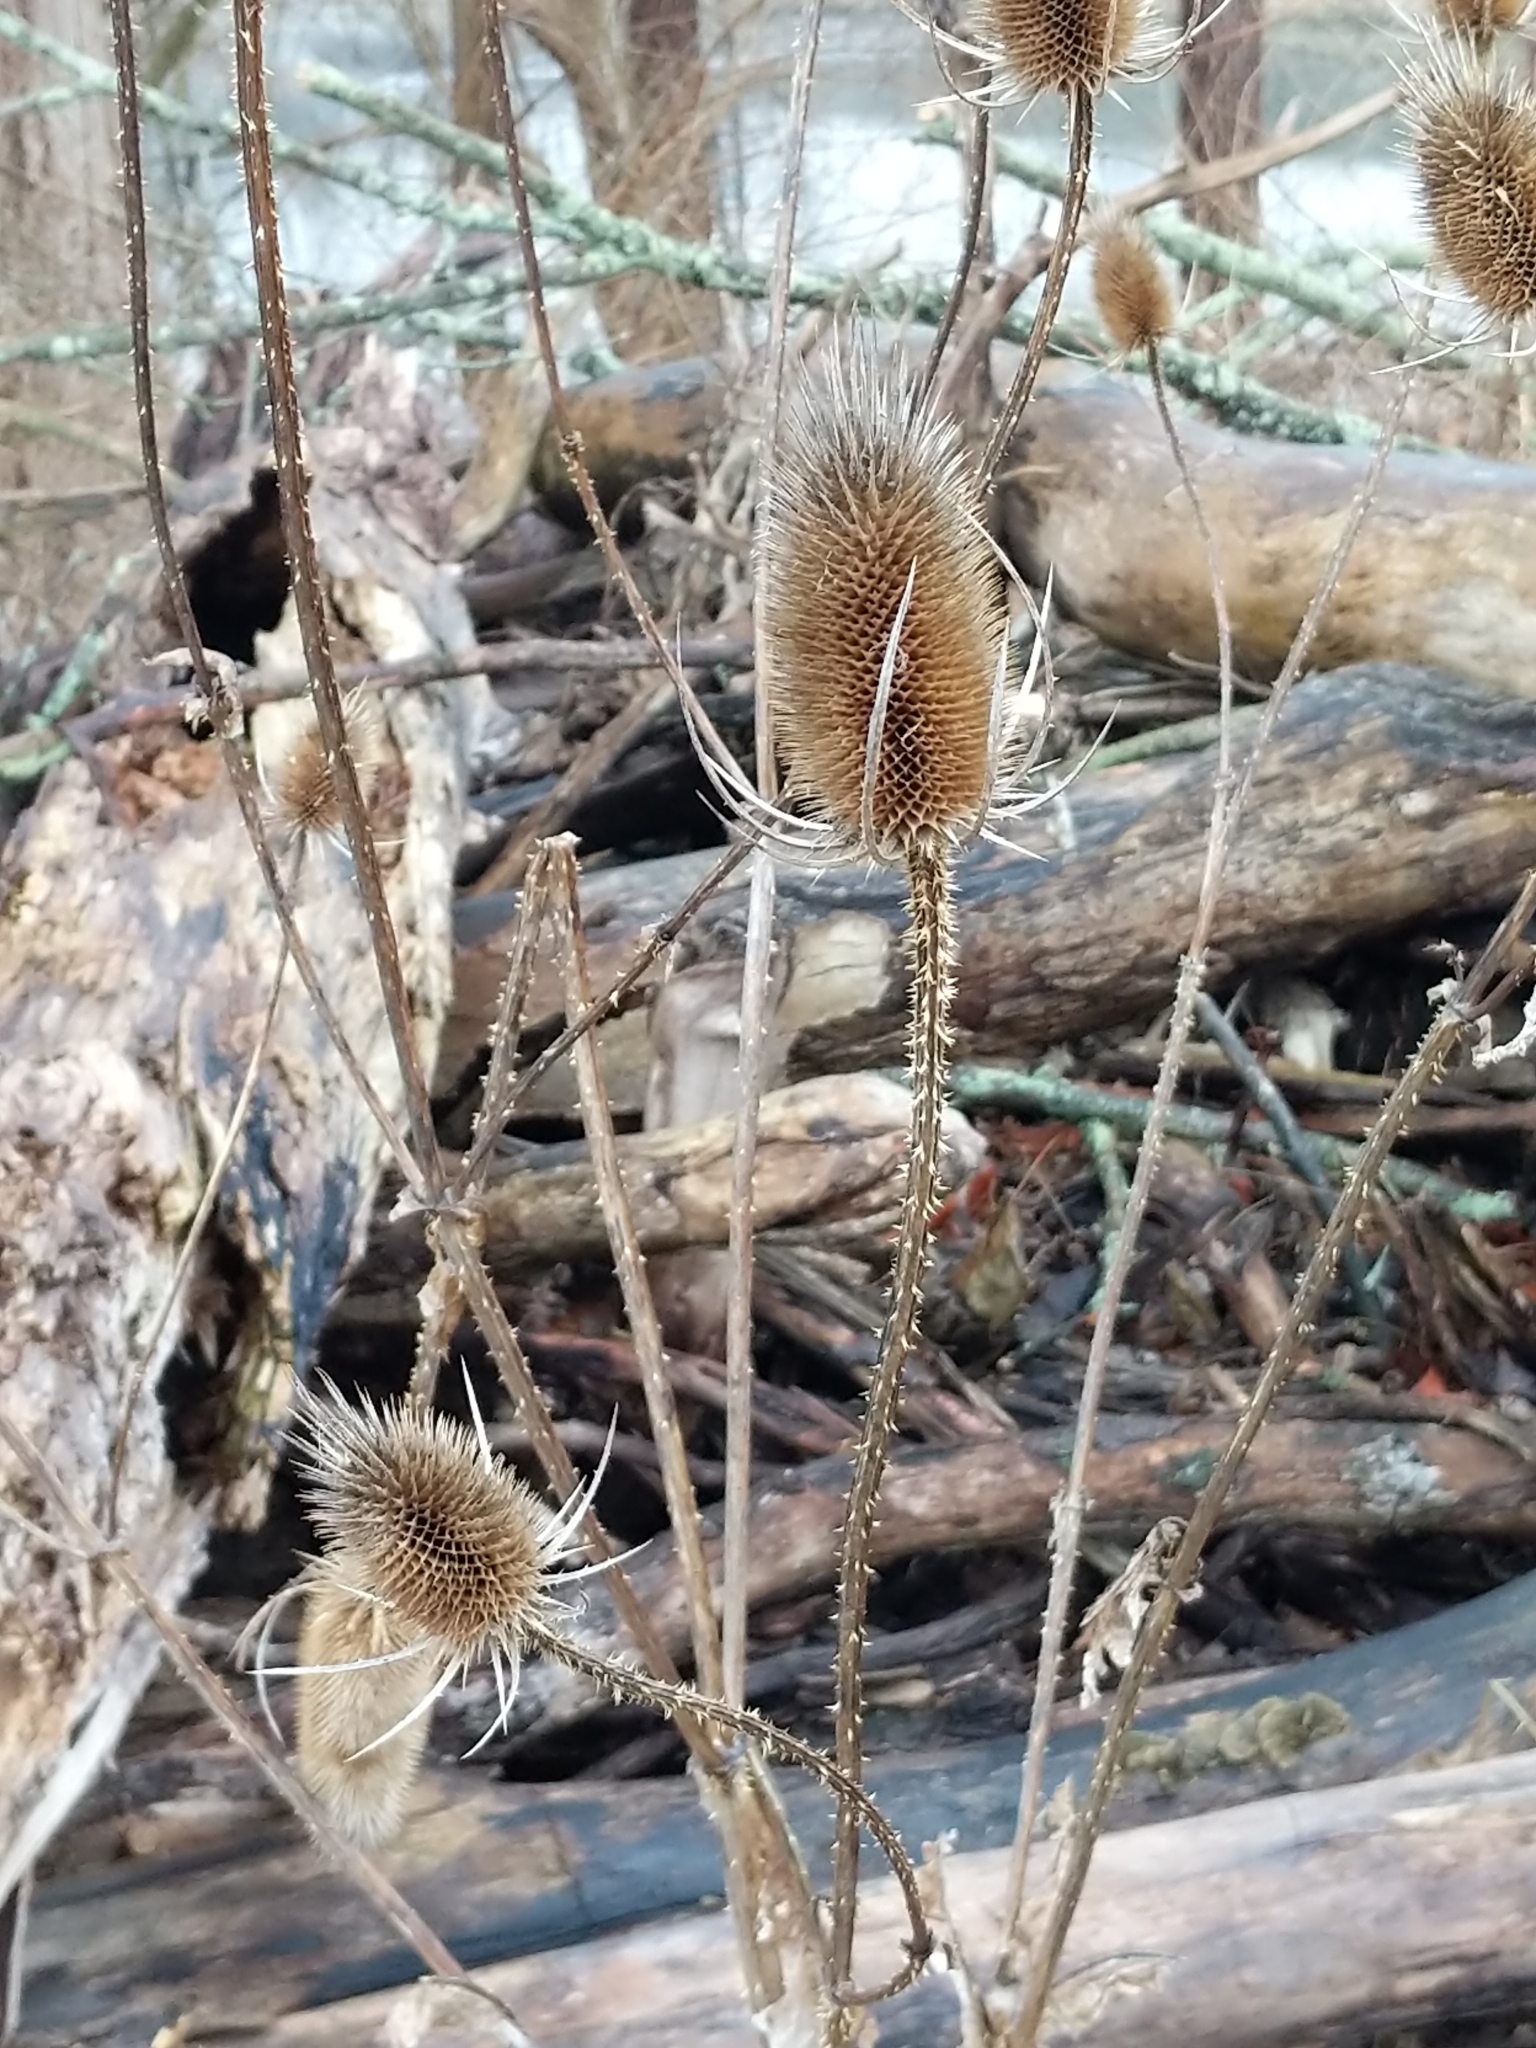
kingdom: Plantae
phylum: Tracheophyta
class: Magnoliopsida
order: Dipsacales
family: Caprifoliaceae
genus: Dipsacus
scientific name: Dipsacus fullonum
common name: Teasel
